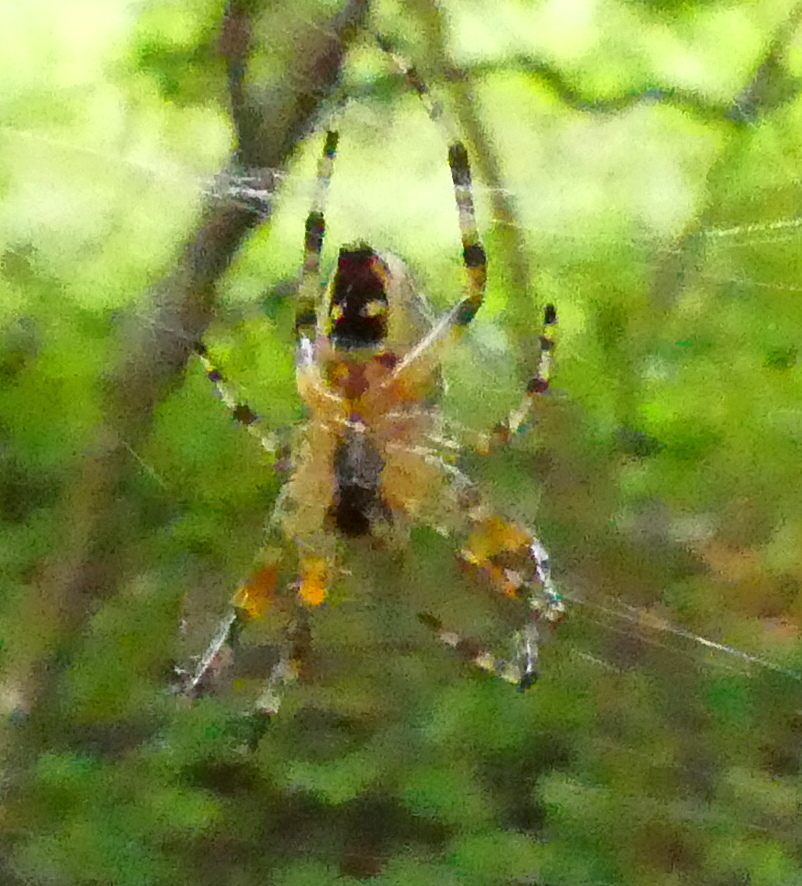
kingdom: Animalia
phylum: Arthropoda
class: Arachnida
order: Araneae
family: Araneidae
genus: Araneus
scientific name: Araneus nordmanni
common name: Nordmann's orbweaver
